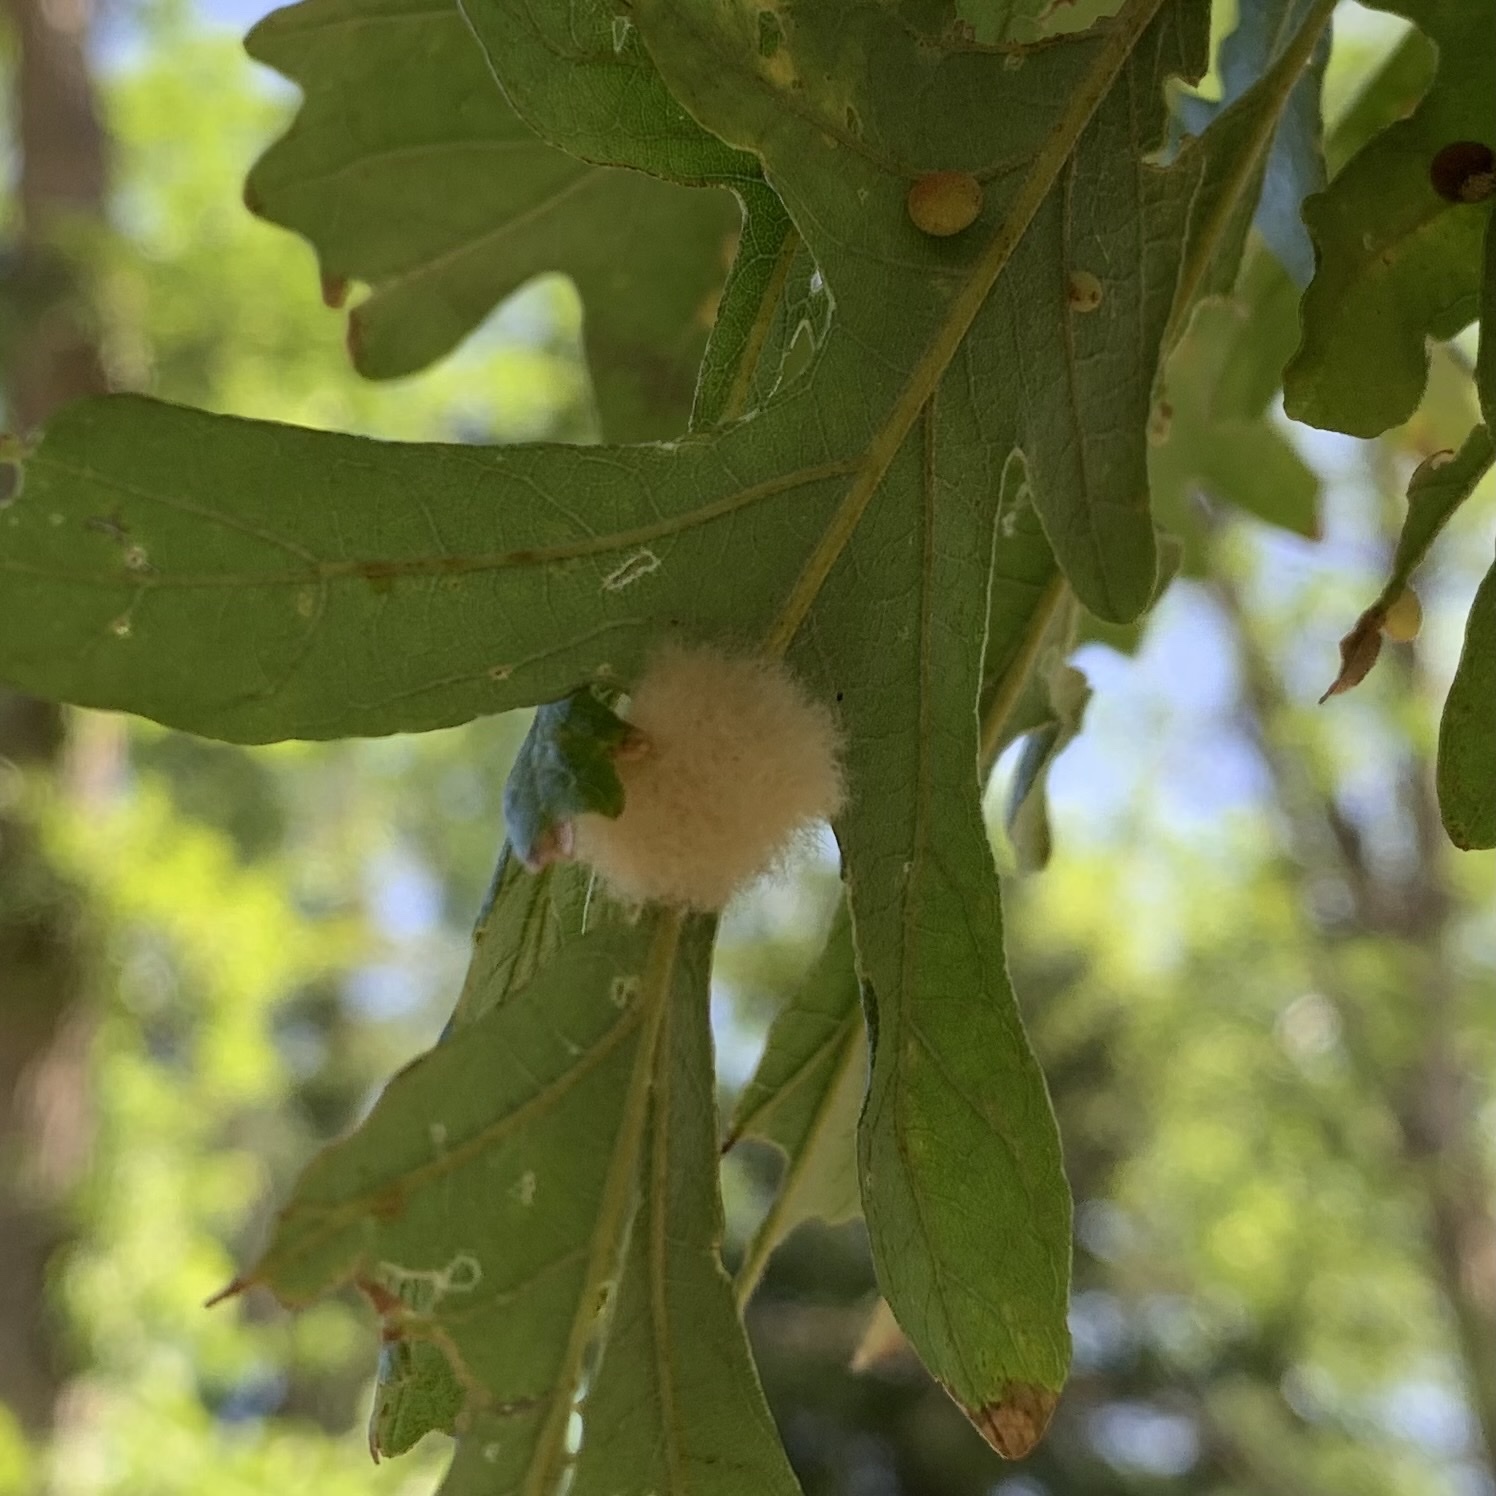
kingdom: Animalia
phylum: Arthropoda
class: Insecta
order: Hymenoptera
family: Cynipidae
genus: Andricus
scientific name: Andricus Druon ignotum
